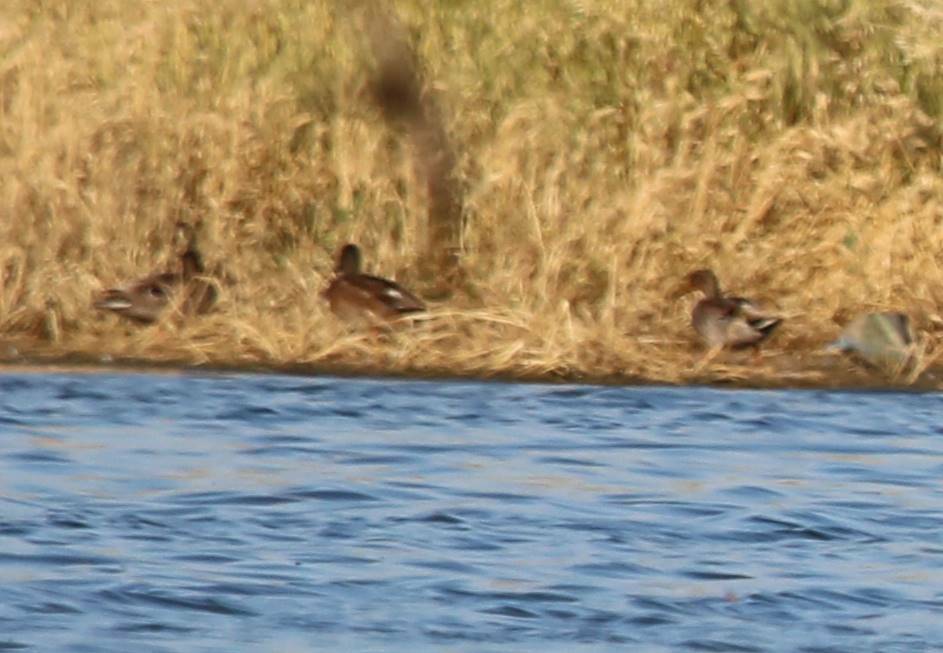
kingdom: Animalia
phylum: Chordata
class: Aves
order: Anseriformes
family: Anatidae
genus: Anas
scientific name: Anas platyrhynchos
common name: Mallard
